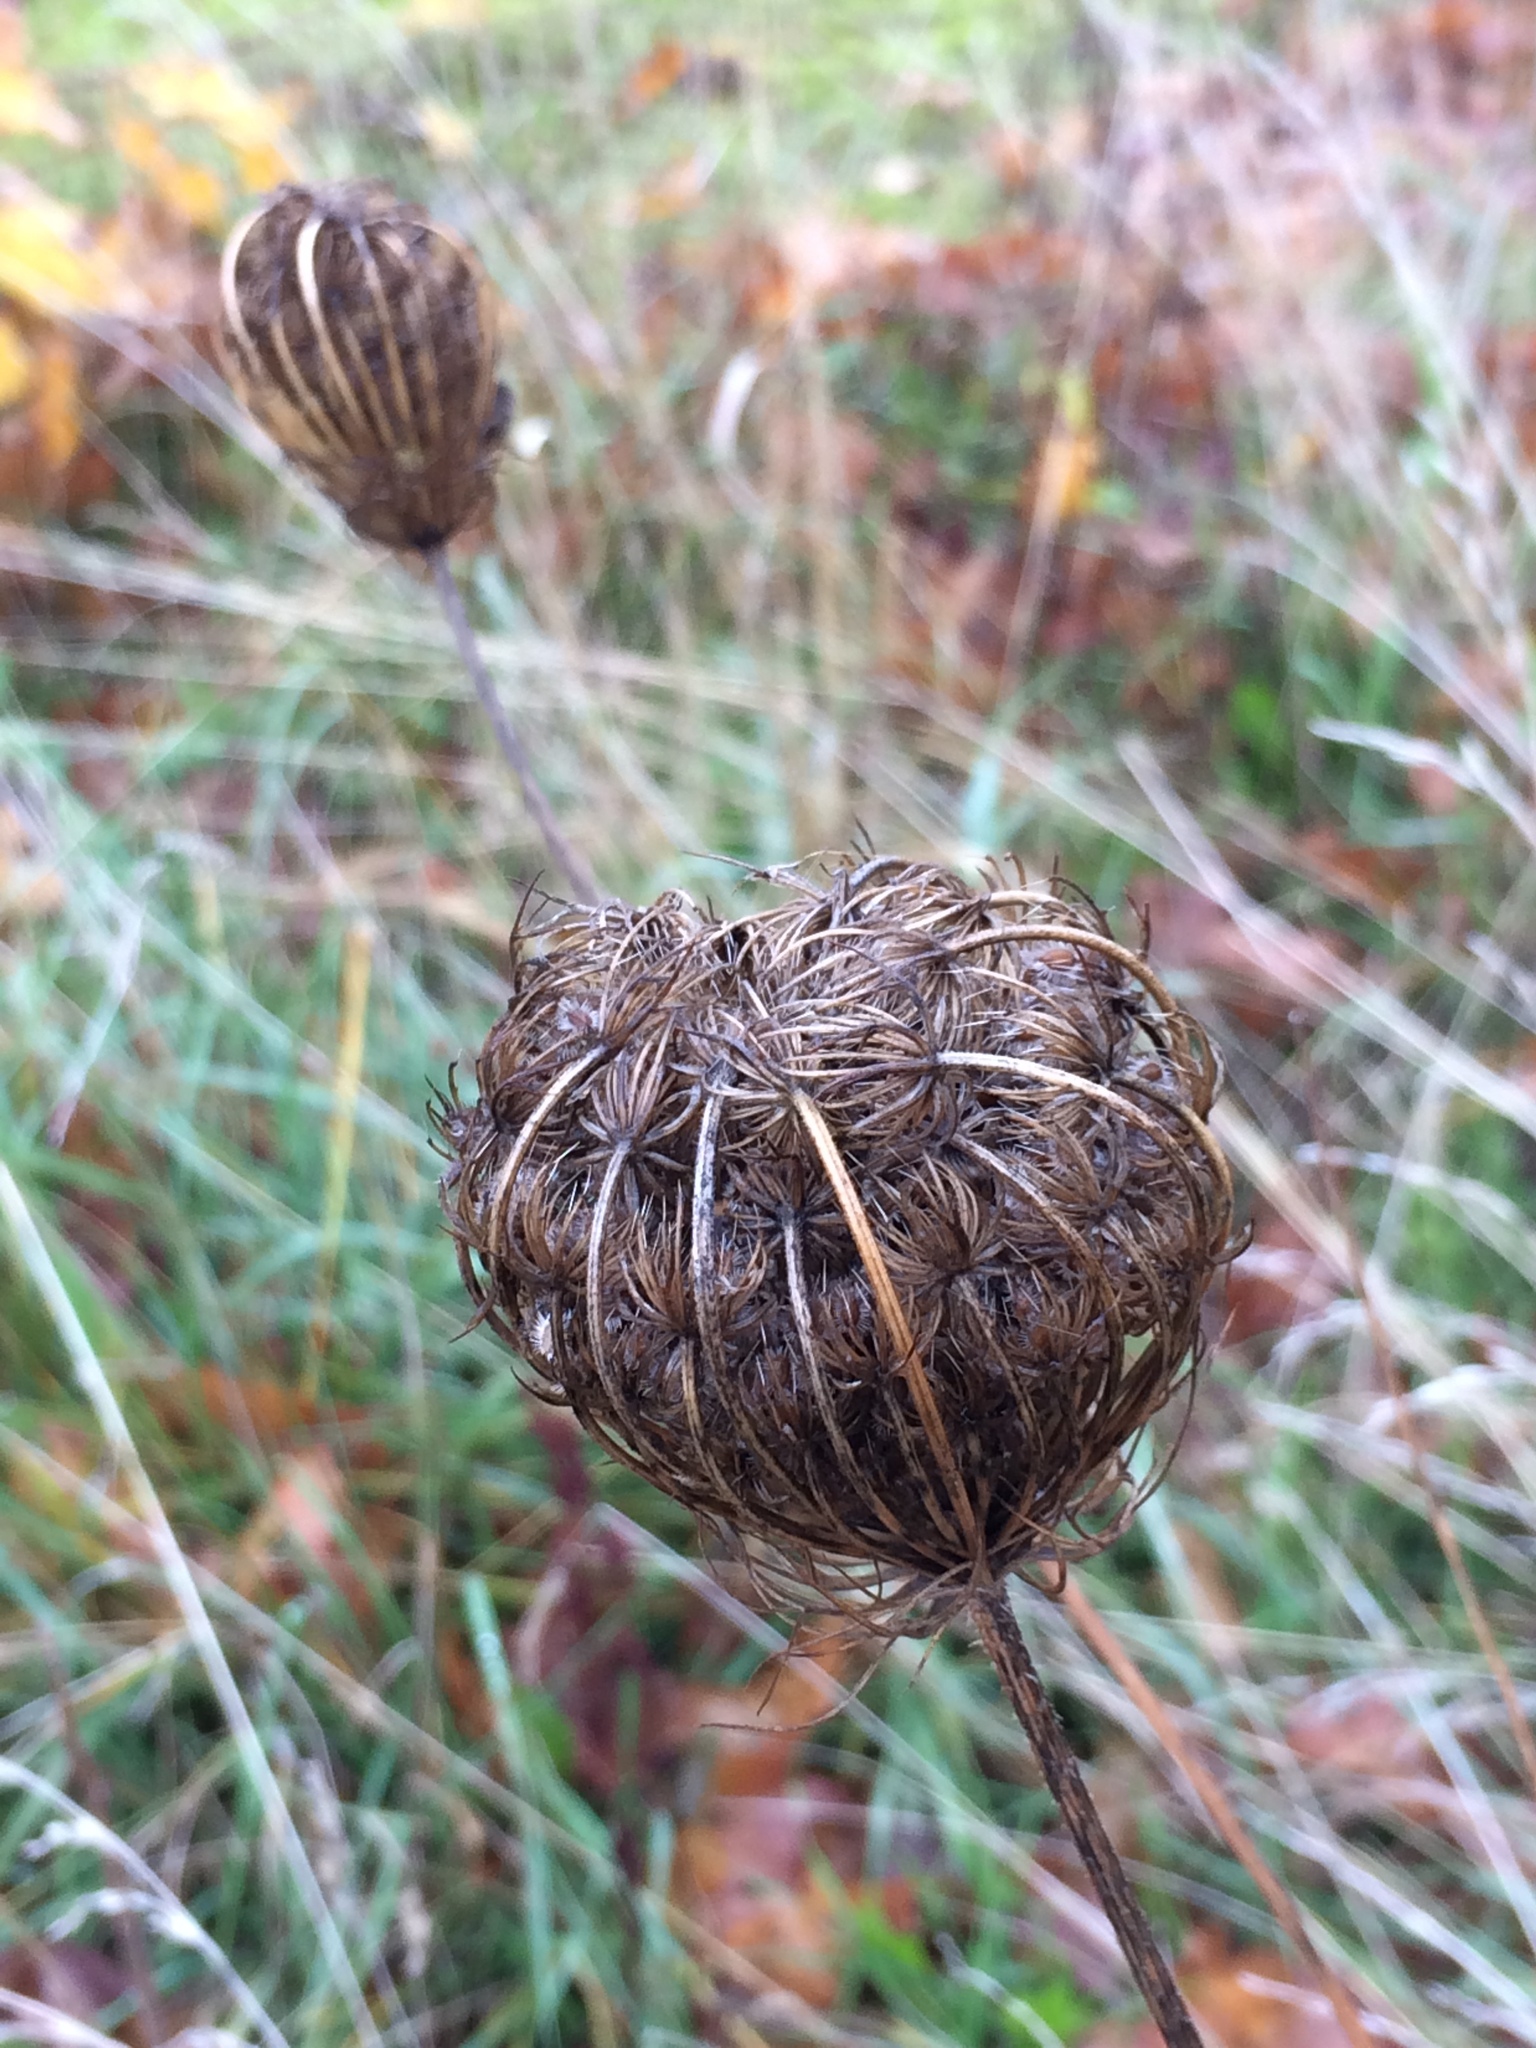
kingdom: Plantae
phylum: Tracheophyta
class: Magnoliopsida
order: Apiales
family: Apiaceae
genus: Daucus
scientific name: Daucus carota
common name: Wild carrot
